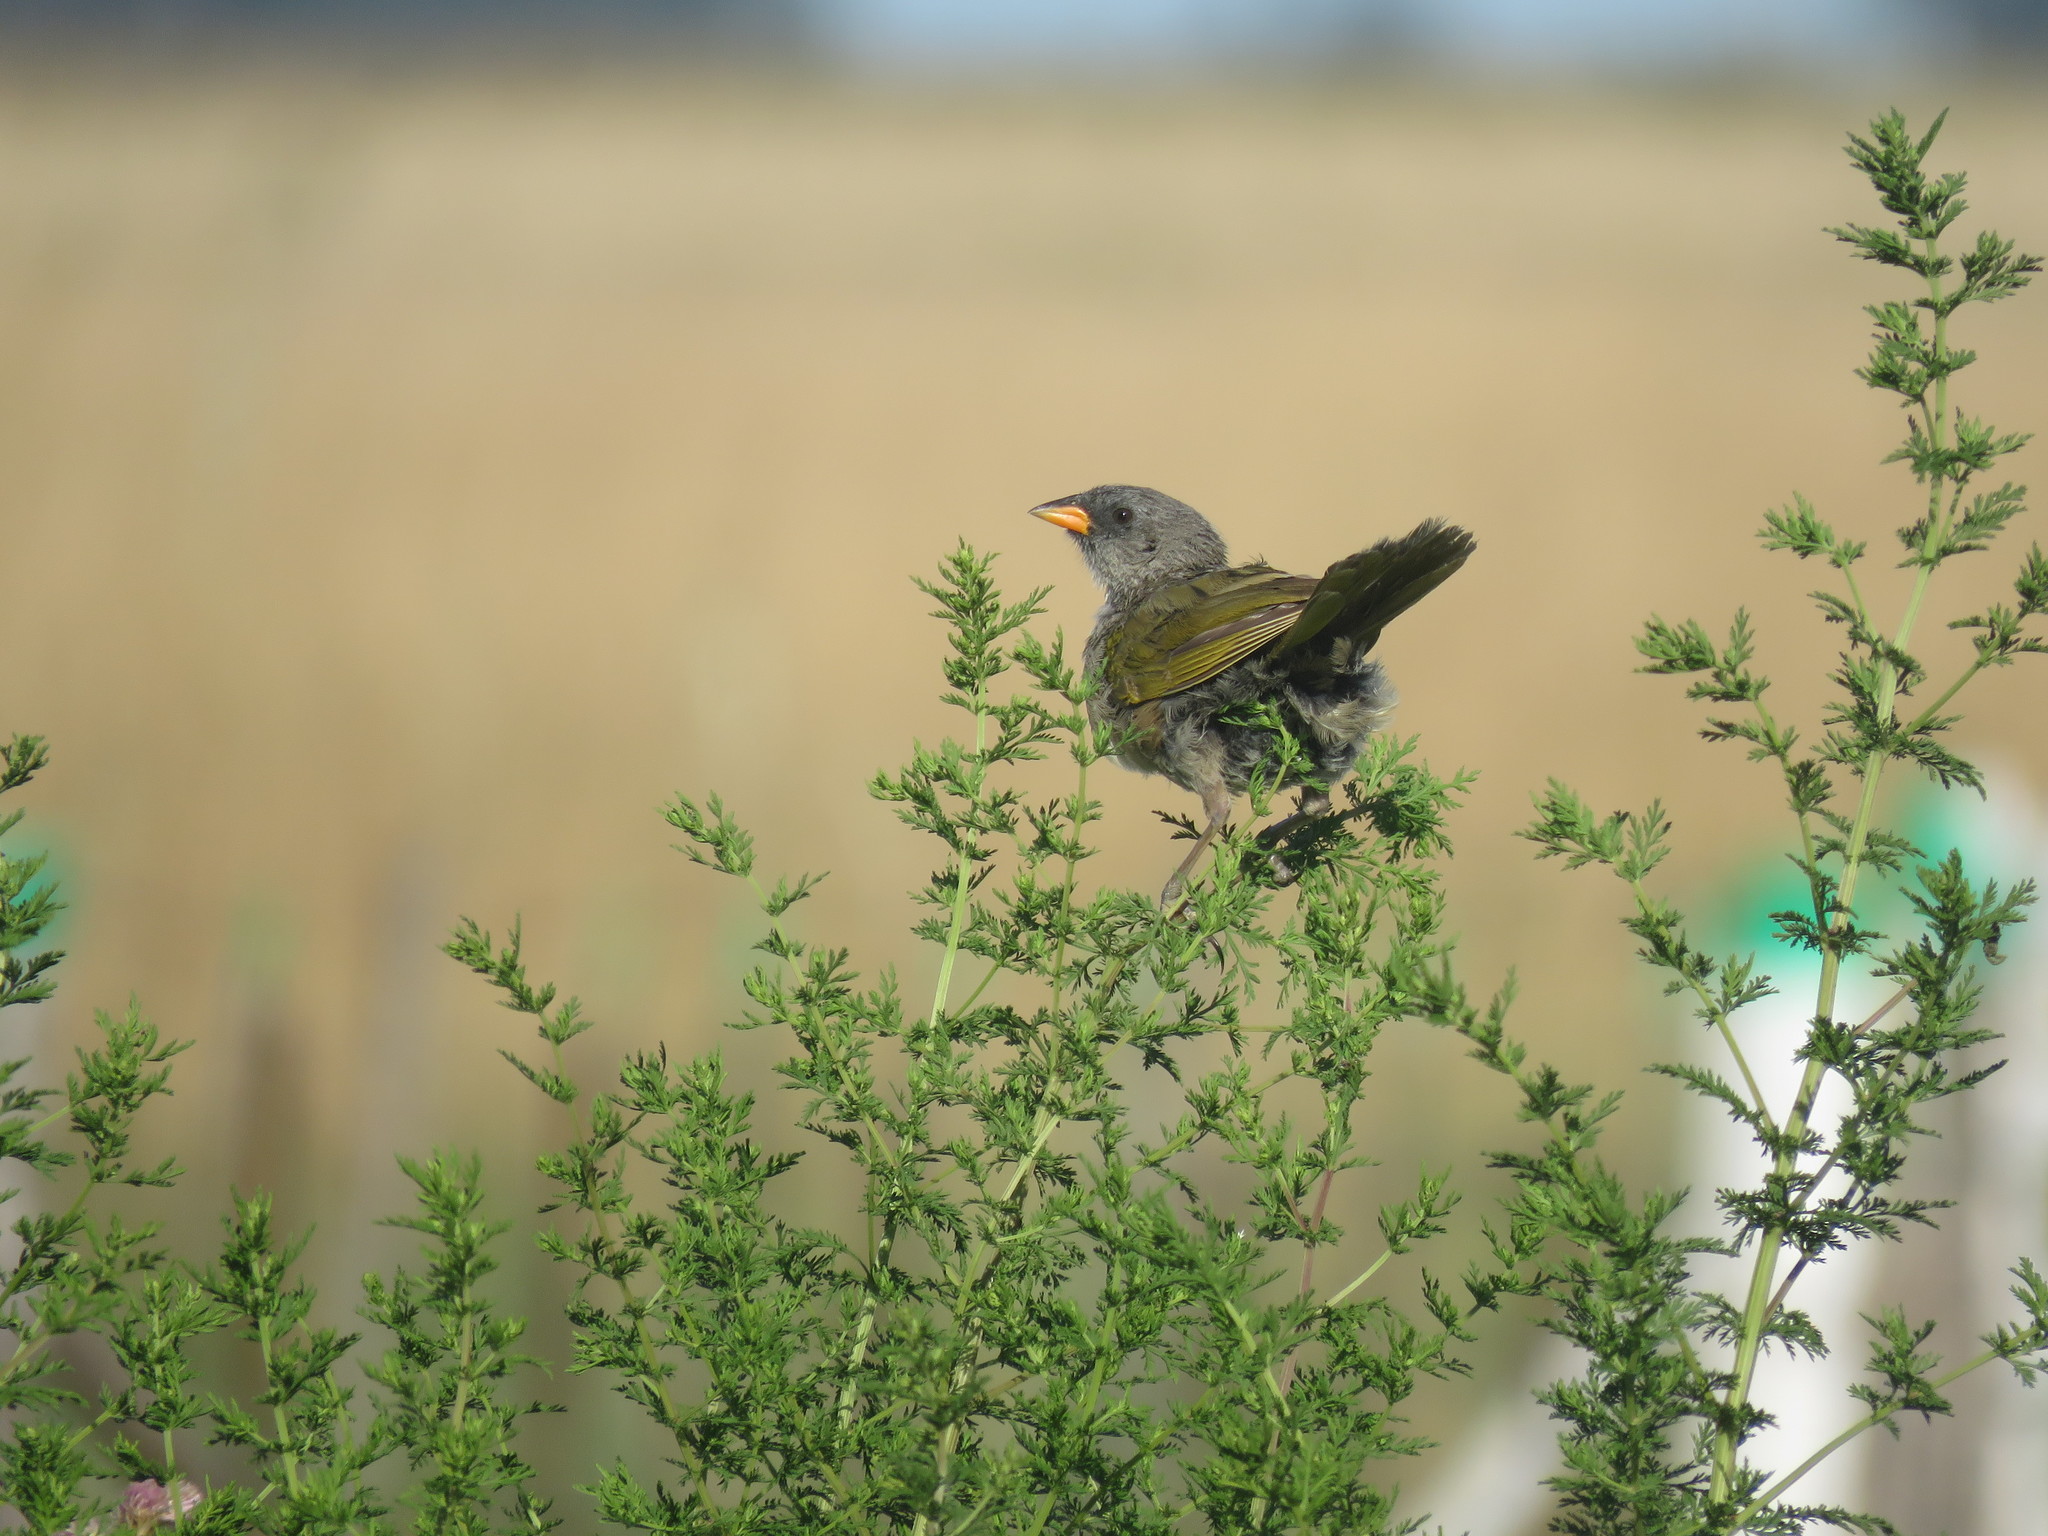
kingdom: Animalia
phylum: Chordata
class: Aves
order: Passeriformes
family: Thraupidae
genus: Embernagra
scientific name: Embernagra platensis
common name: Pampa finch
